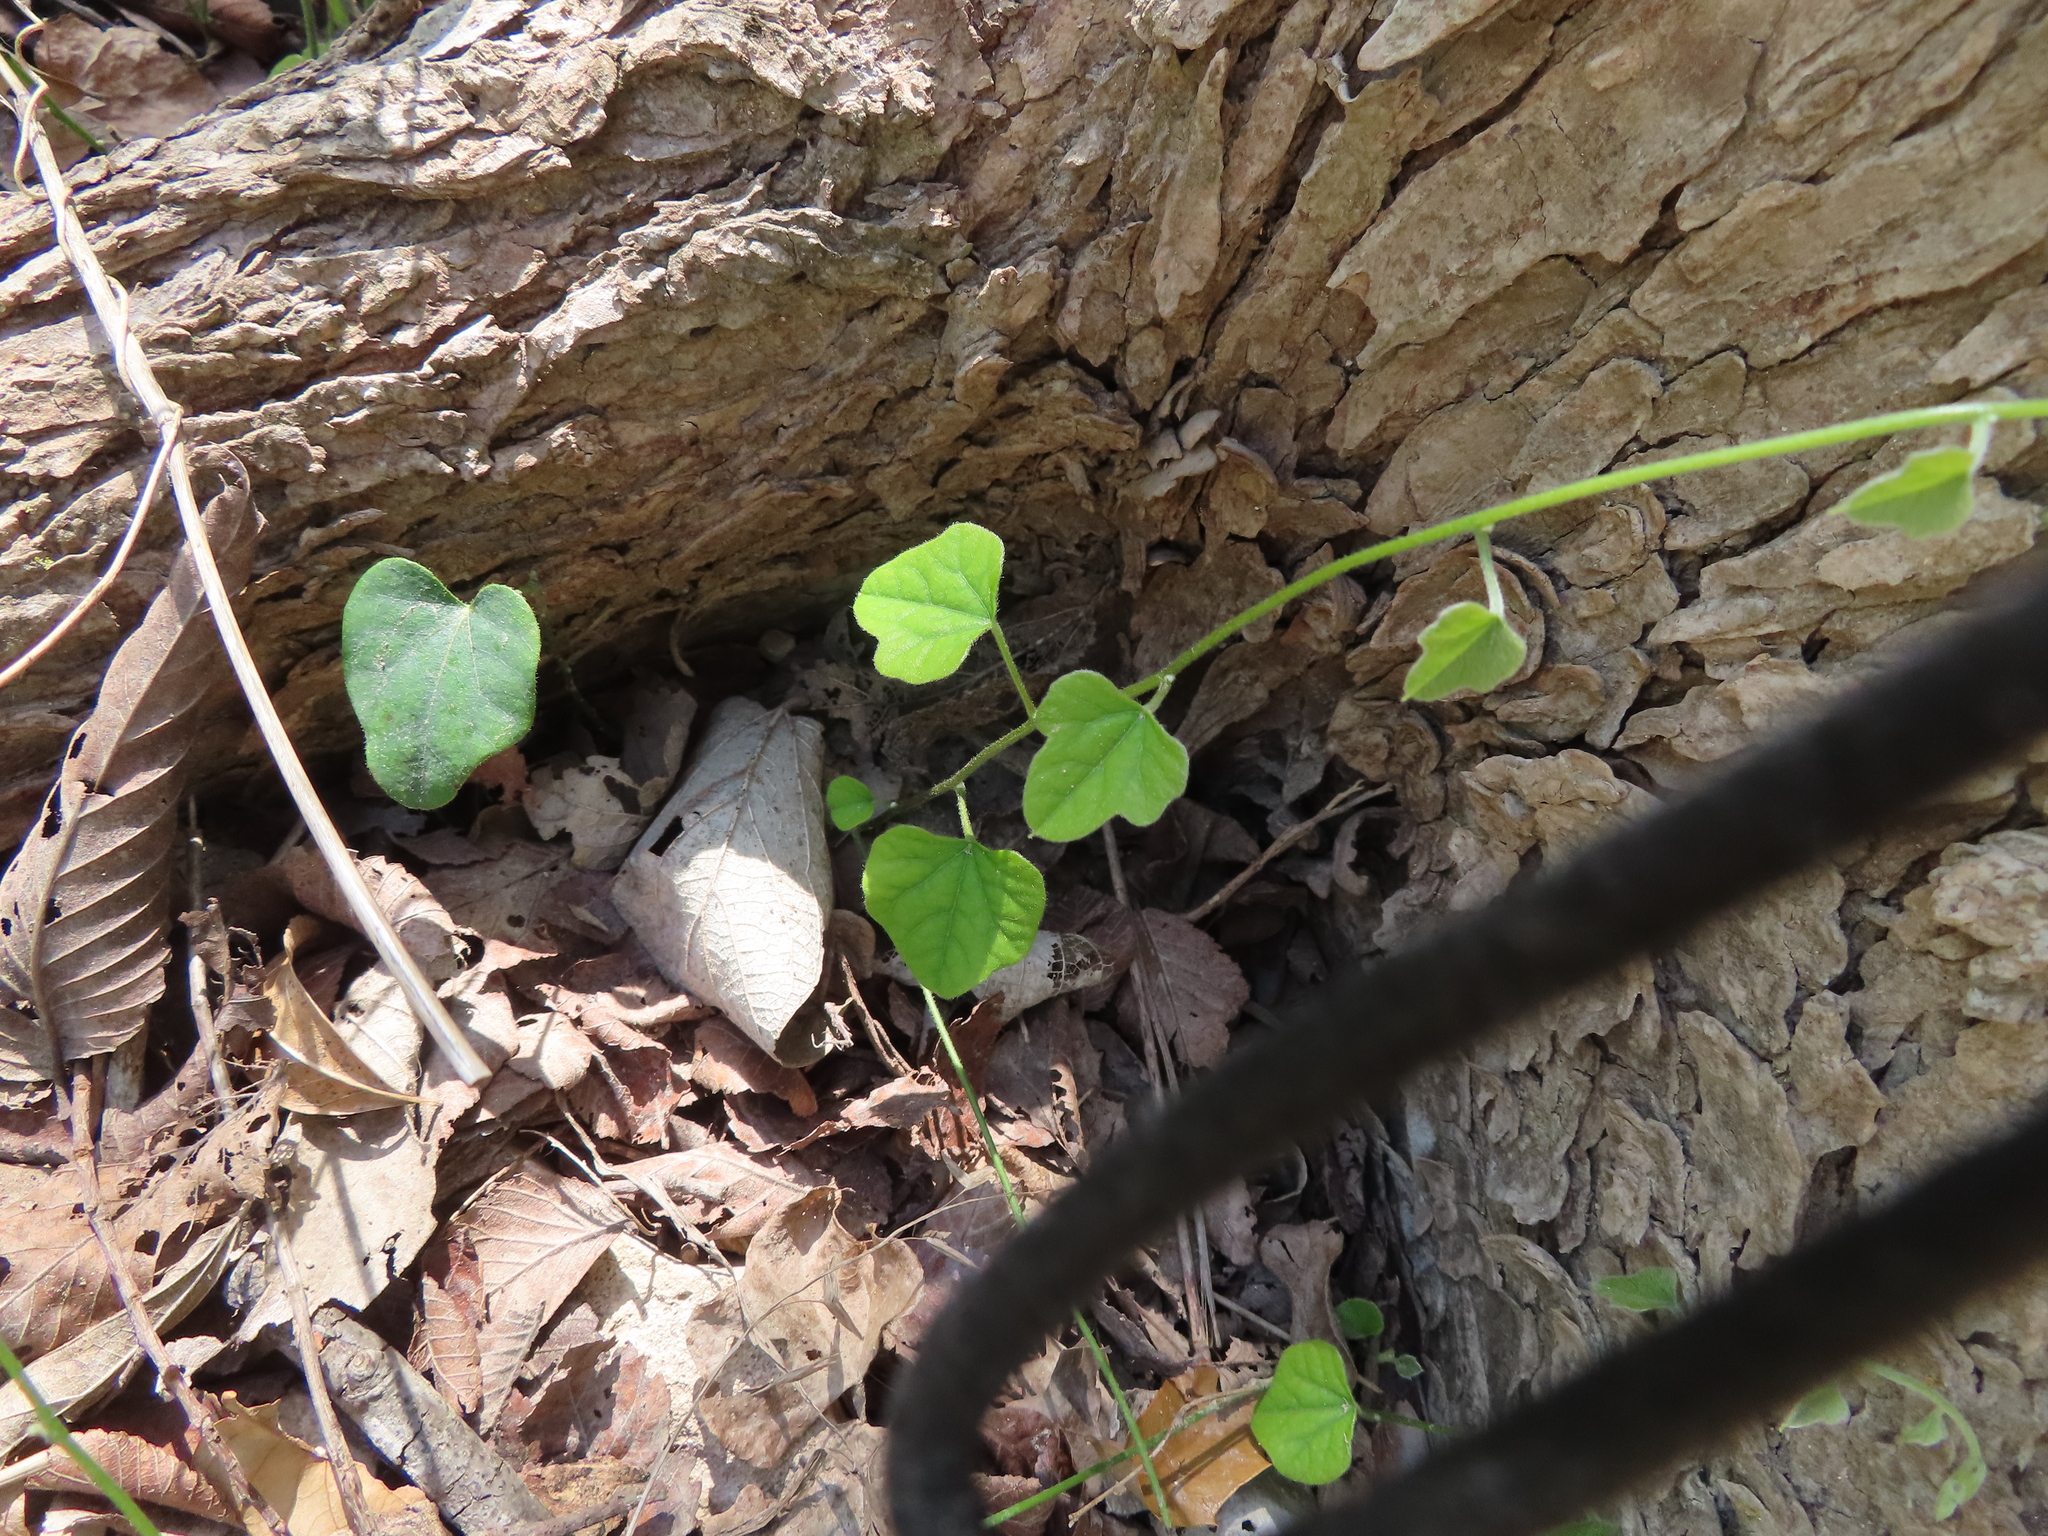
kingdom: Plantae
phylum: Tracheophyta
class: Magnoliopsida
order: Ranunculales
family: Menispermaceae
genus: Cocculus
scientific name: Cocculus carolinus
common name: Carolina moonseed
